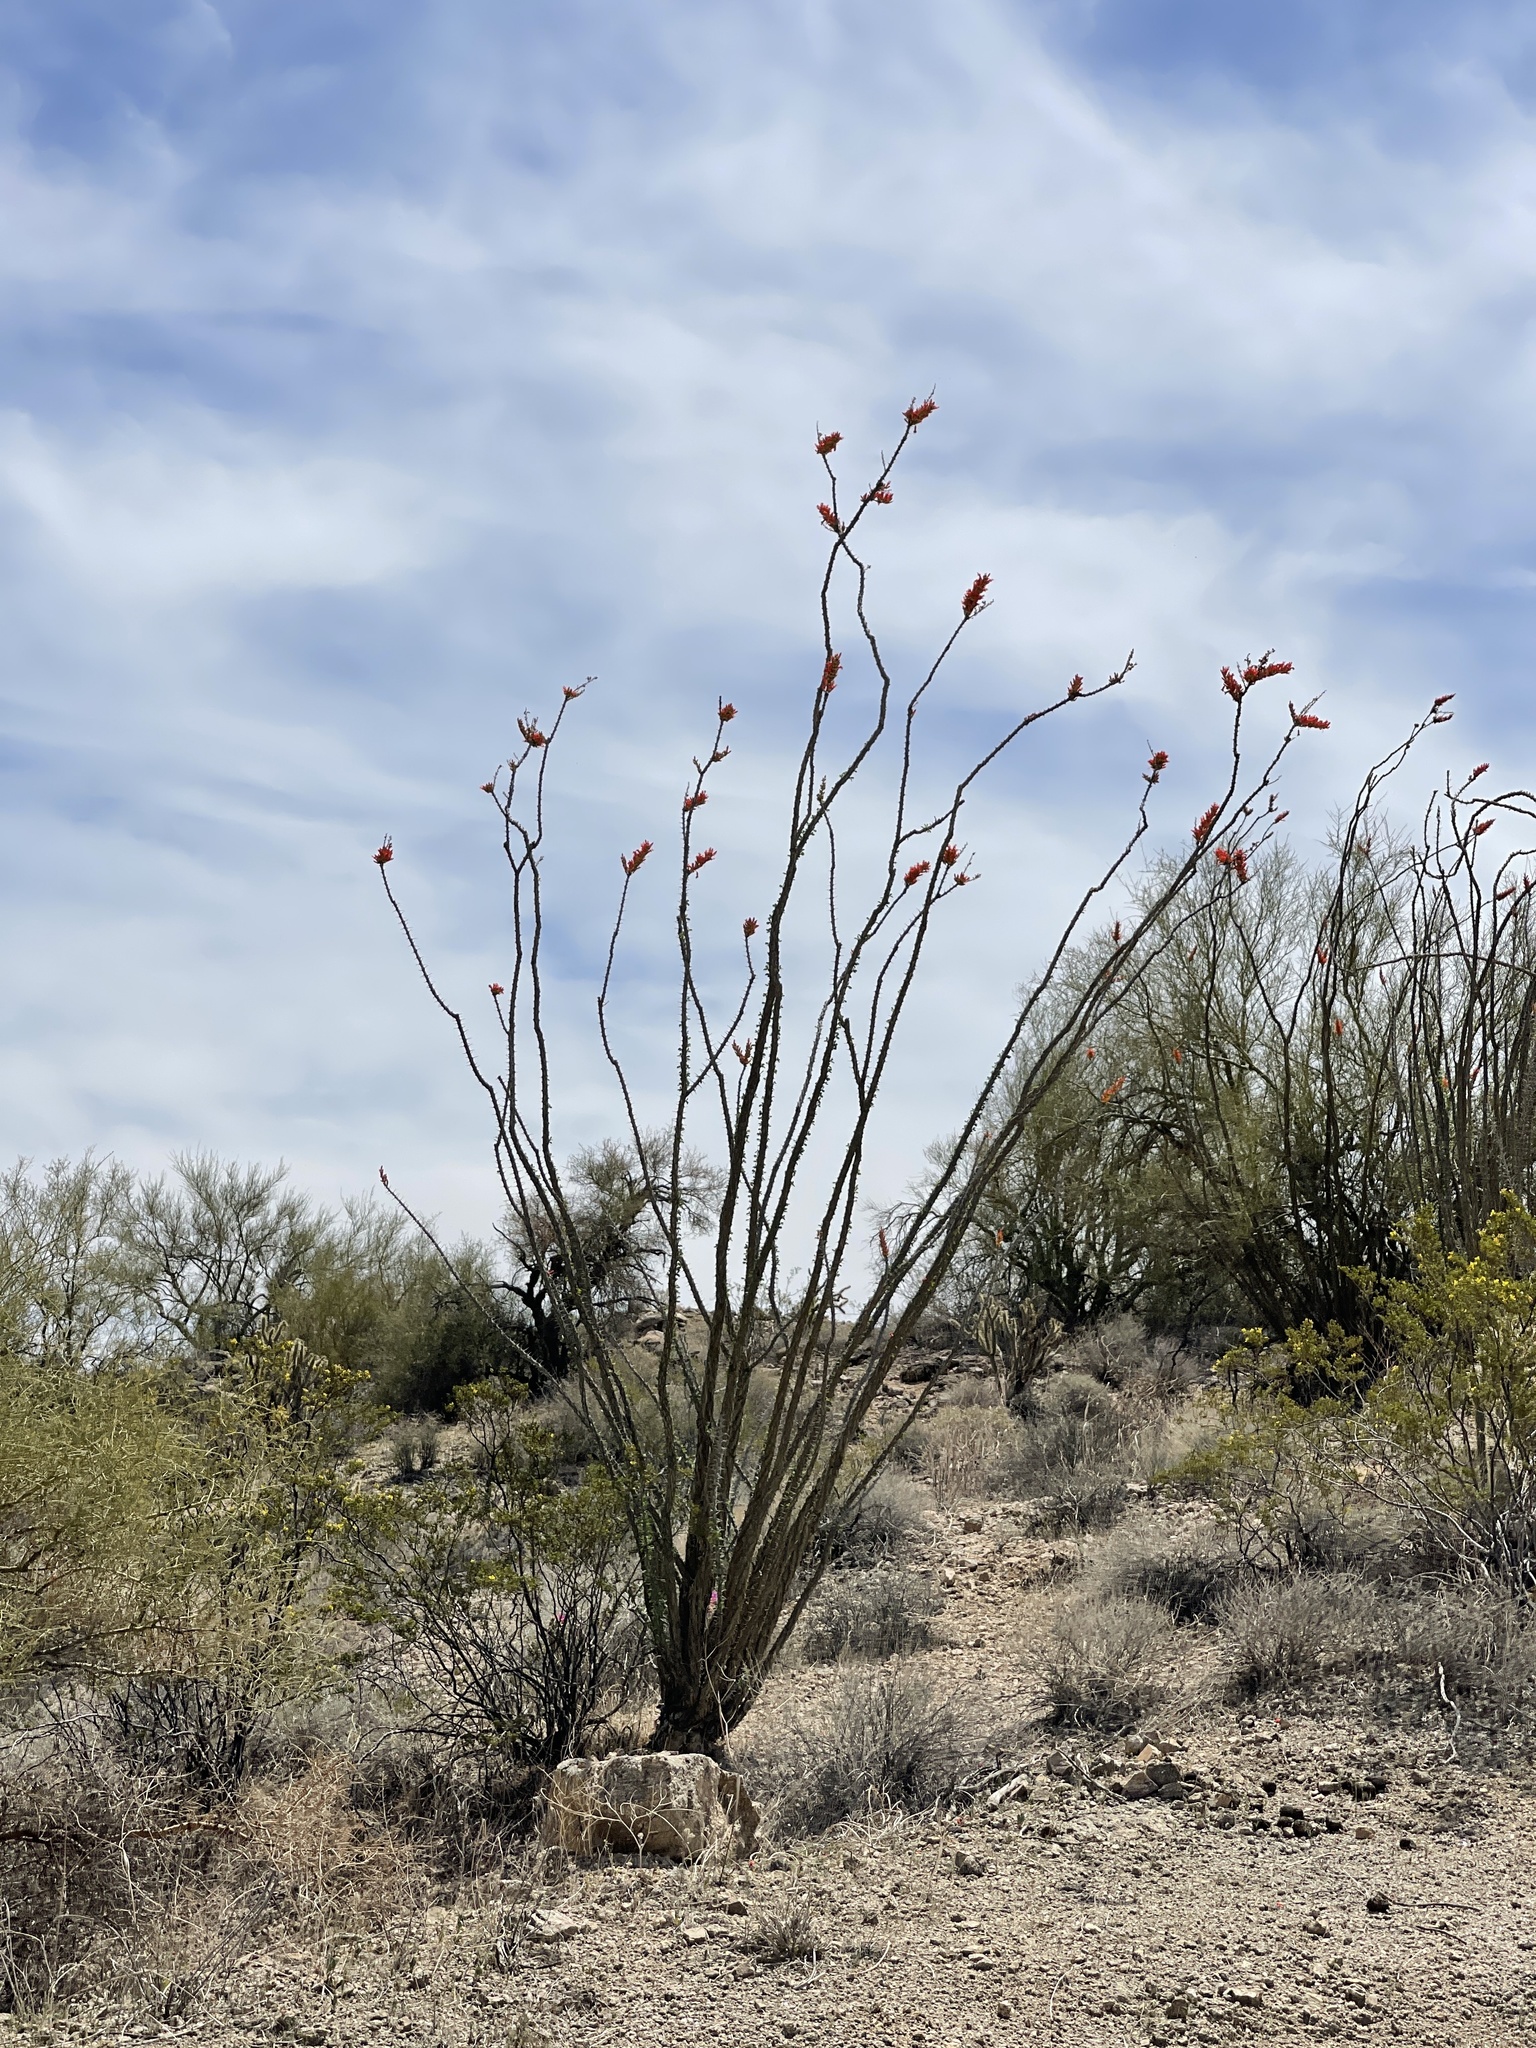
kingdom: Plantae
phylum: Tracheophyta
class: Magnoliopsida
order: Ericales
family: Fouquieriaceae
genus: Fouquieria
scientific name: Fouquieria splendens
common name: Vine-cactus
